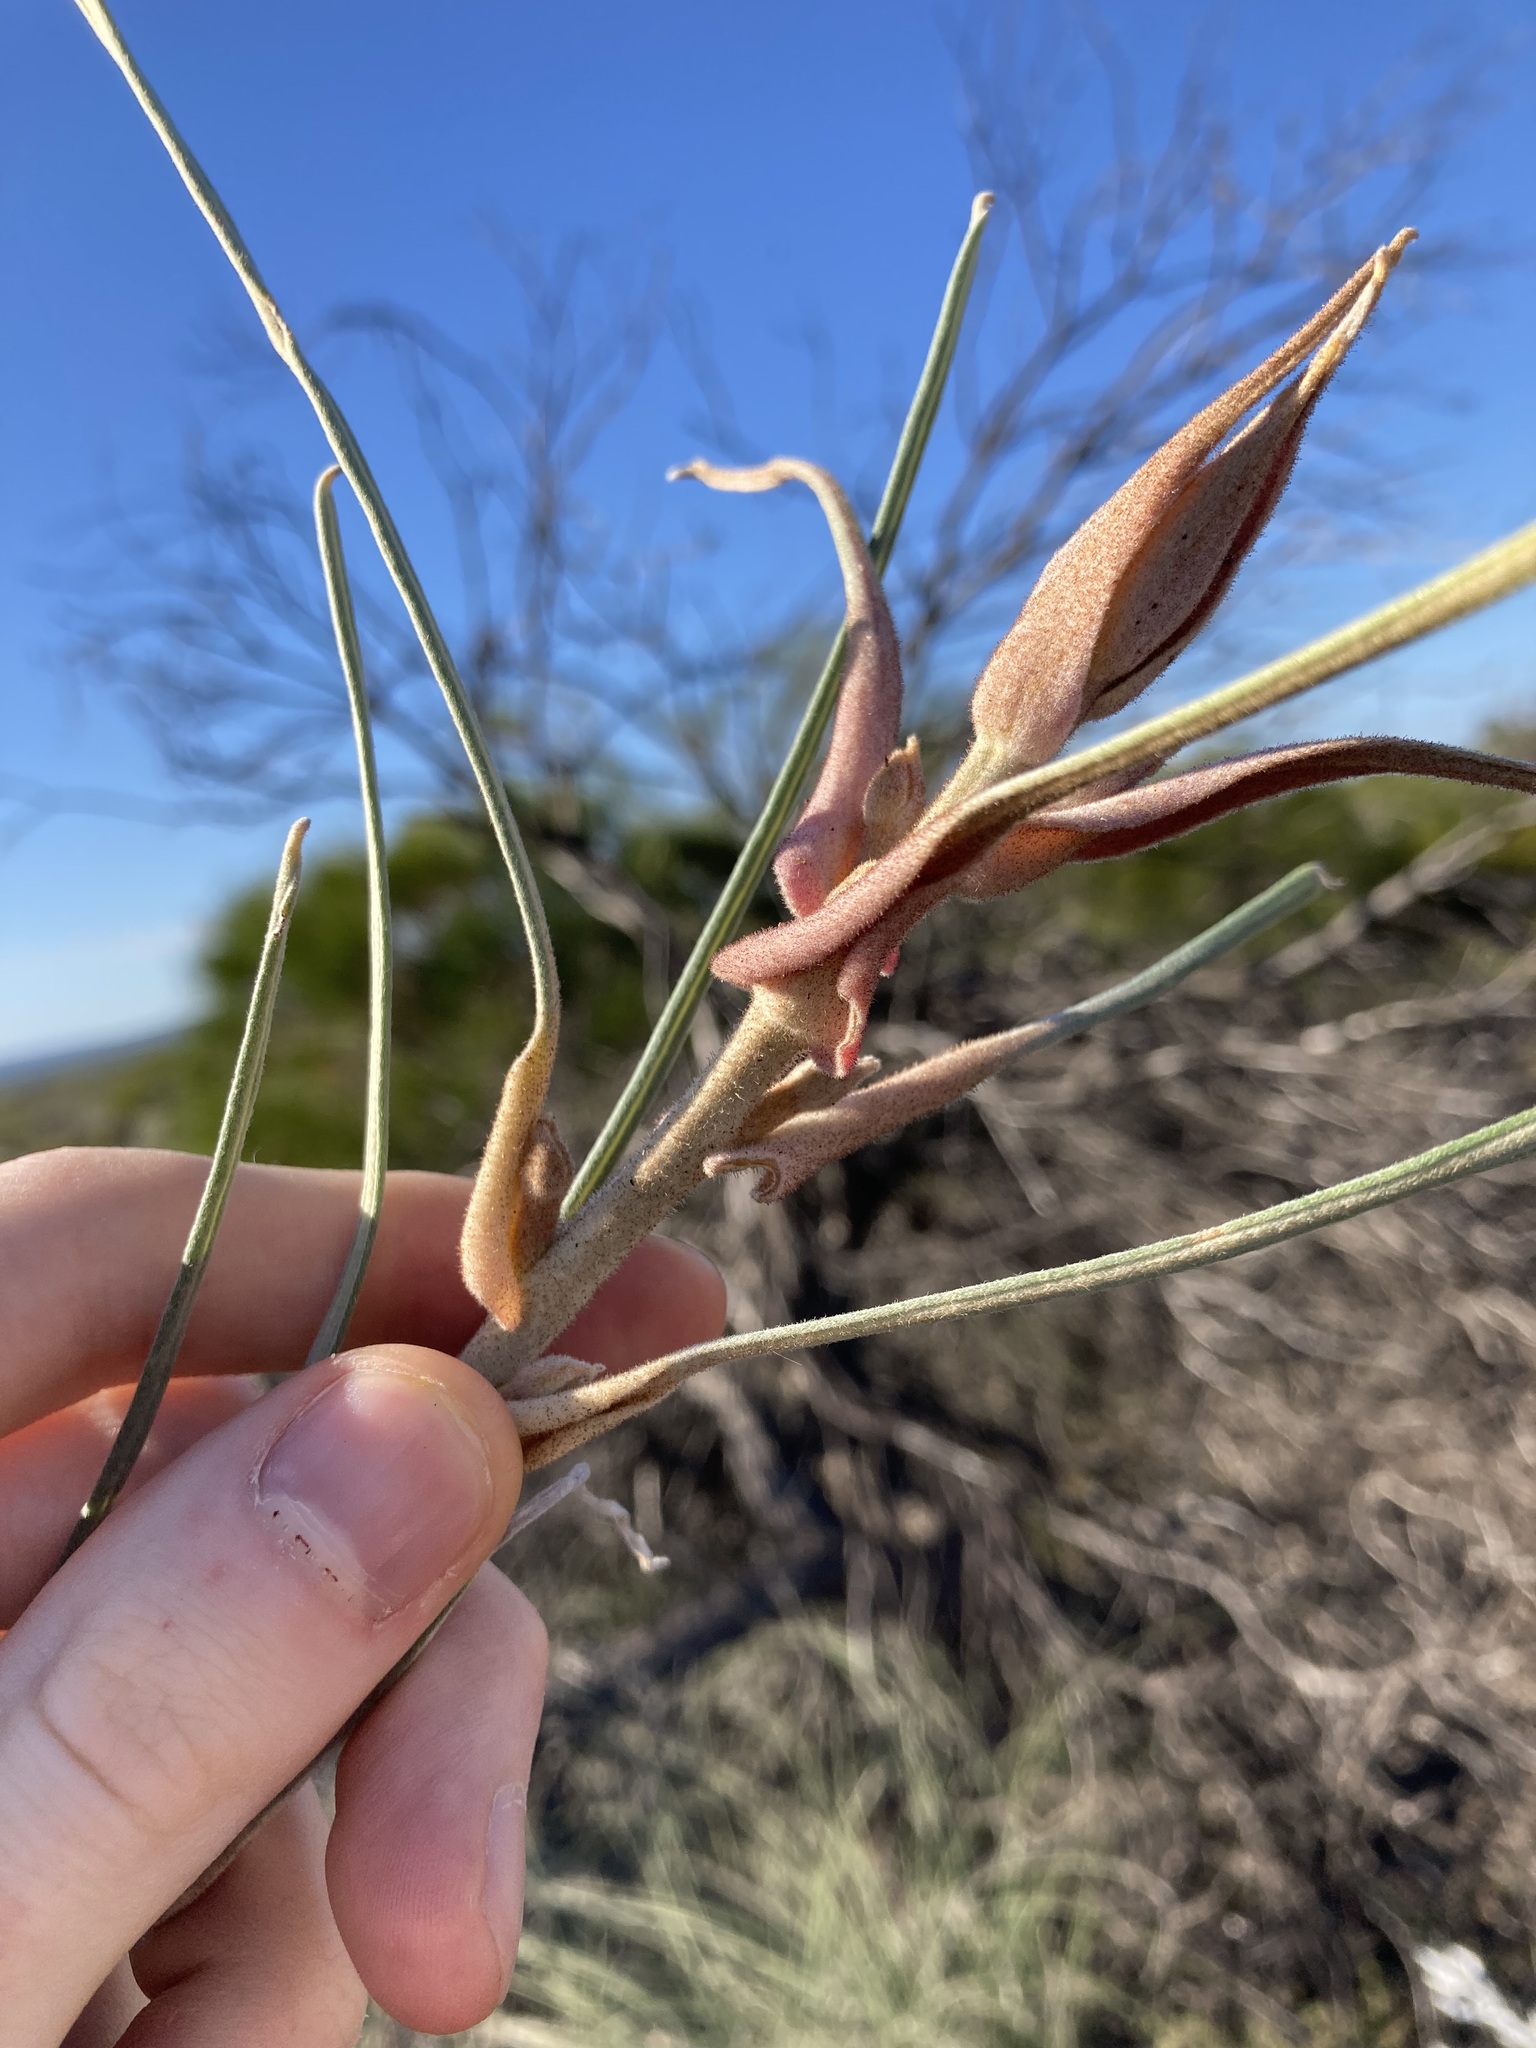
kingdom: Plantae
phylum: Tracheophyta
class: Magnoliopsida
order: Proteales
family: Proteaceae
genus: Grevillea
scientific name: Grevillea petrophiloides
